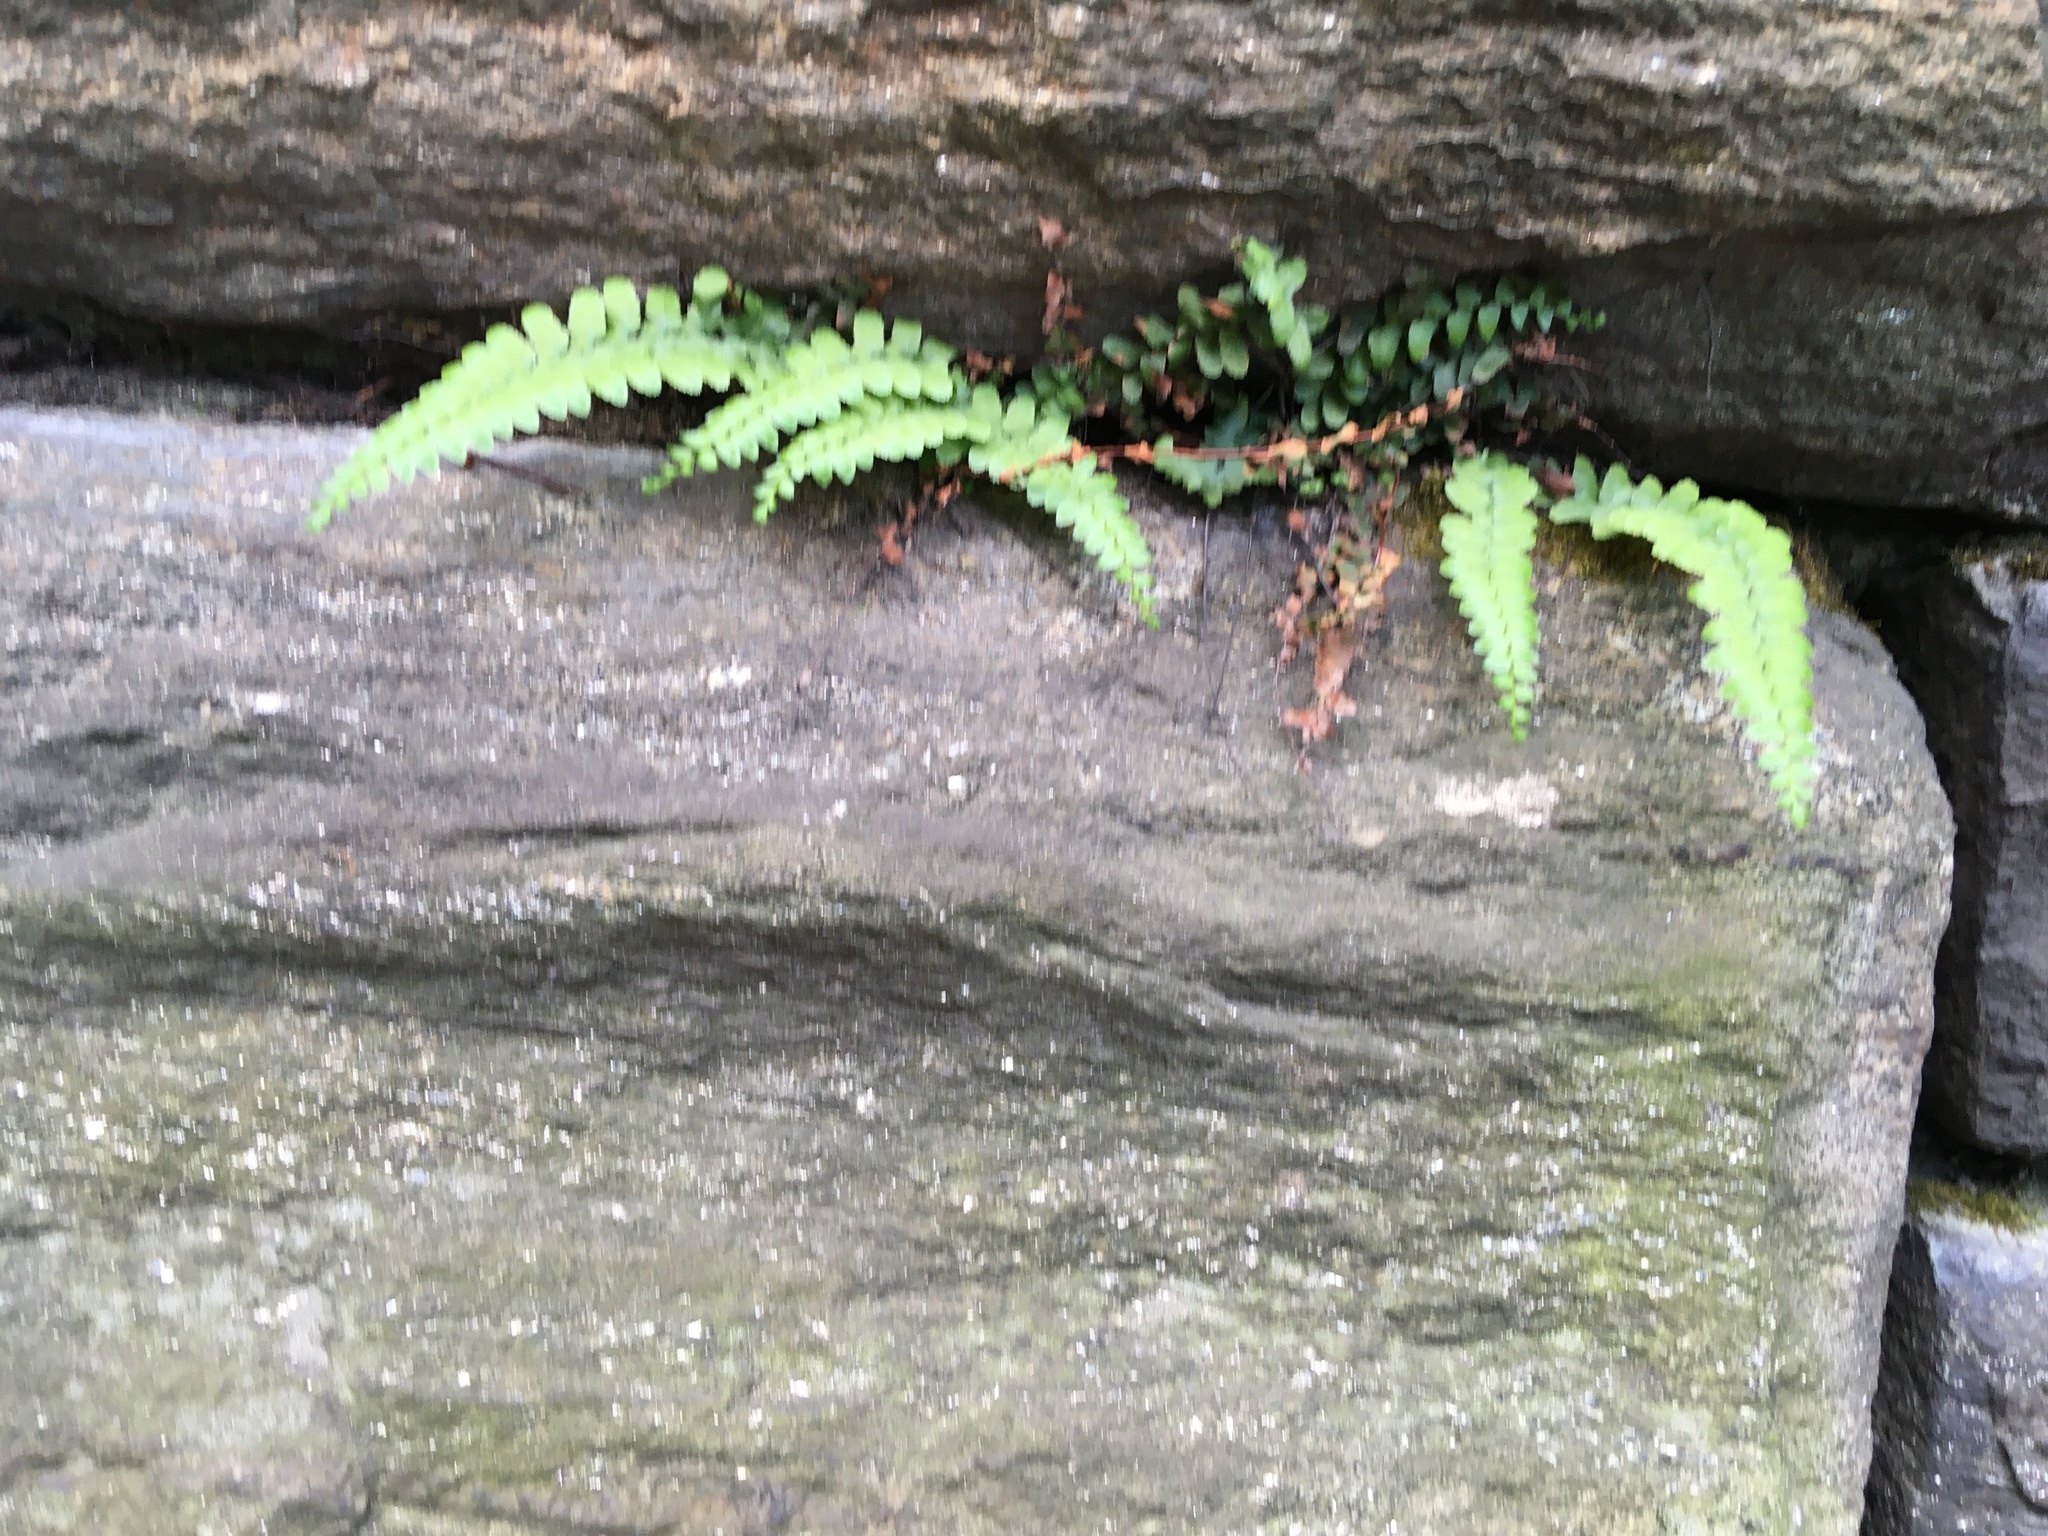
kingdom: Plantae
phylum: Tracheophyta
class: Polypodiopsida
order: Polypodiales
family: Aspleniaceae
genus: Asplenium
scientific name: Asplenium platyneuron
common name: Ebony spleenwort
